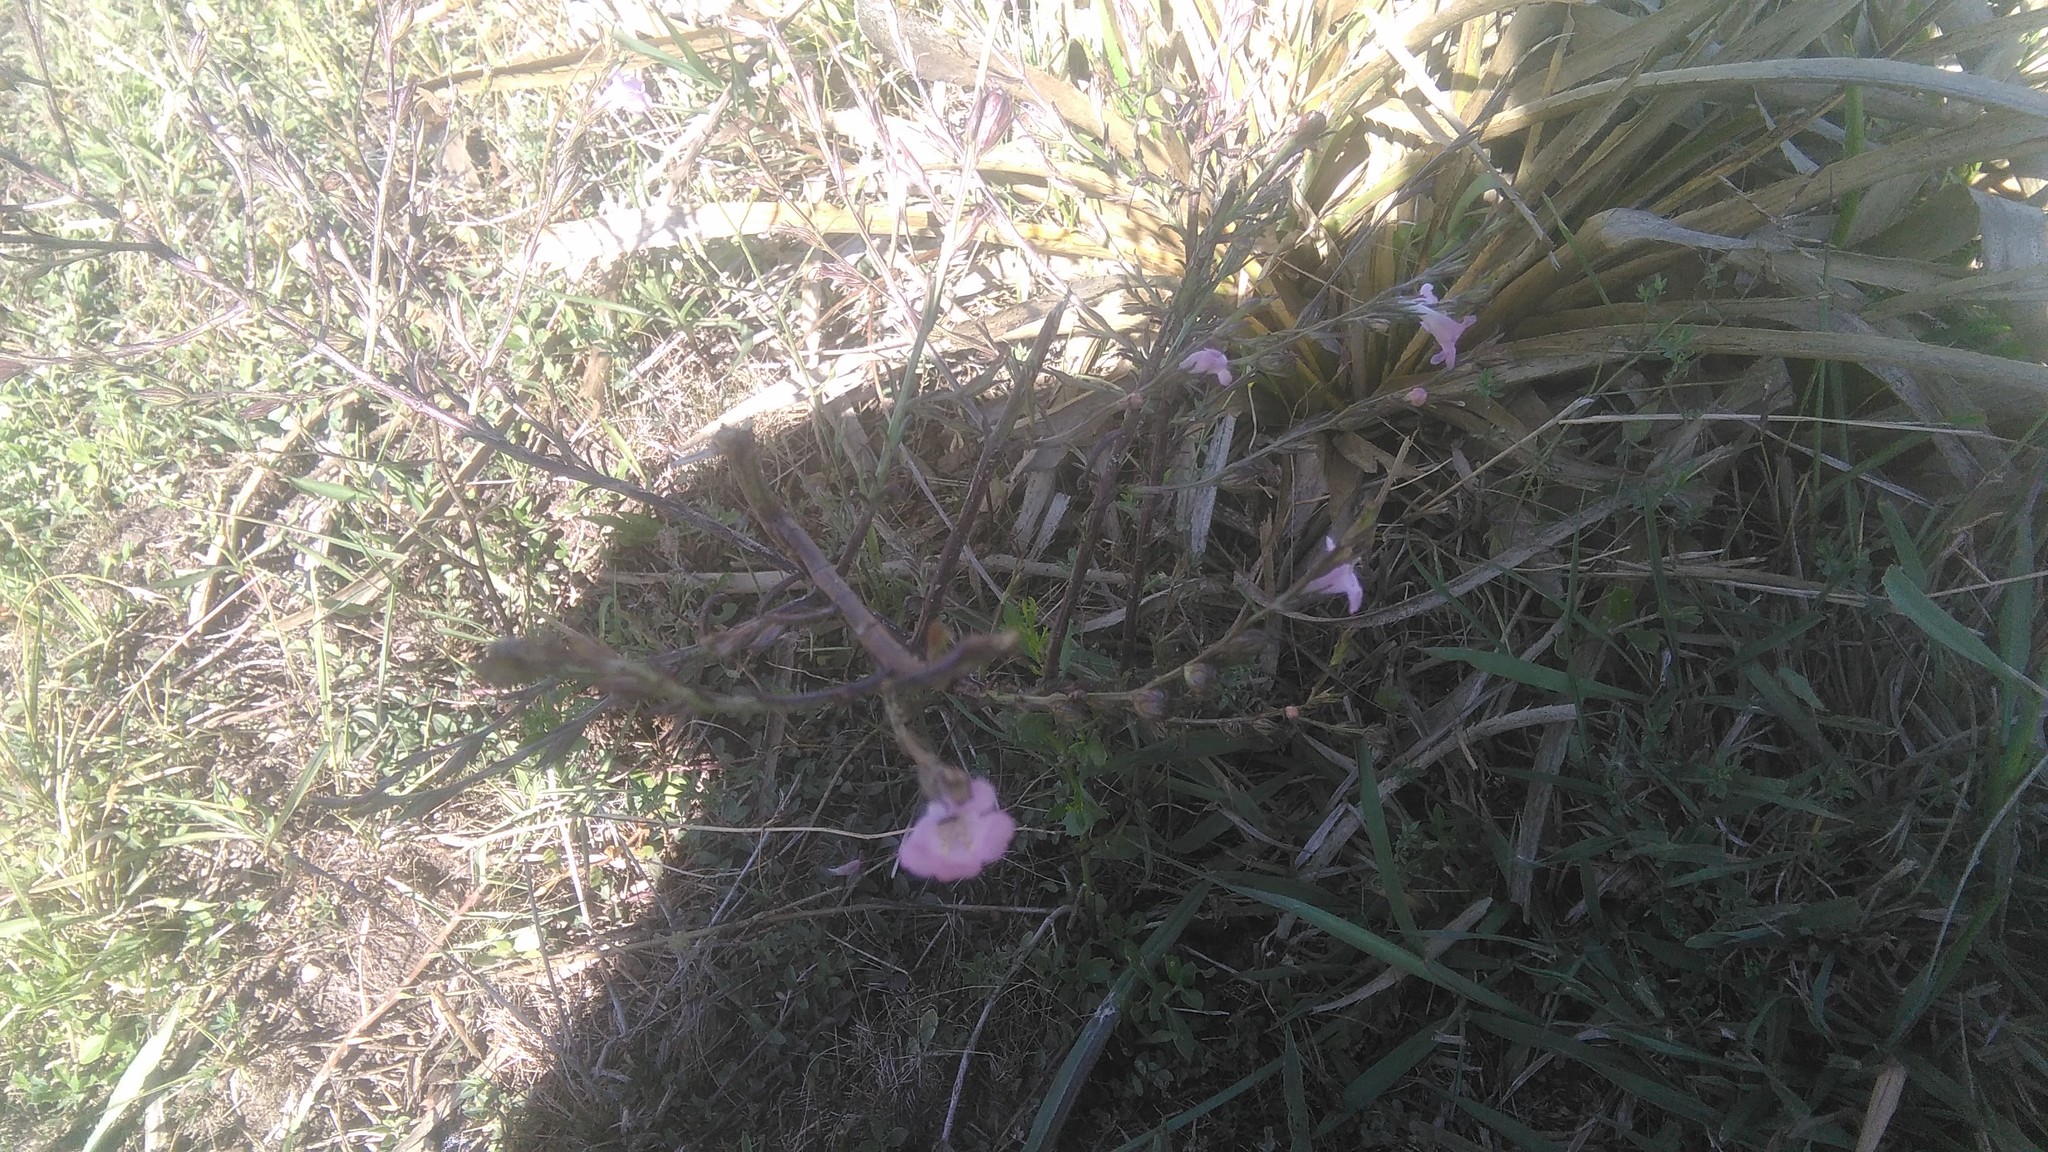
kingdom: Plantae
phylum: Tracheophyta
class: Magnoliopsida
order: Lamiales
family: Orobanchaceae
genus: Agalinis
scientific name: Agalinis communis
